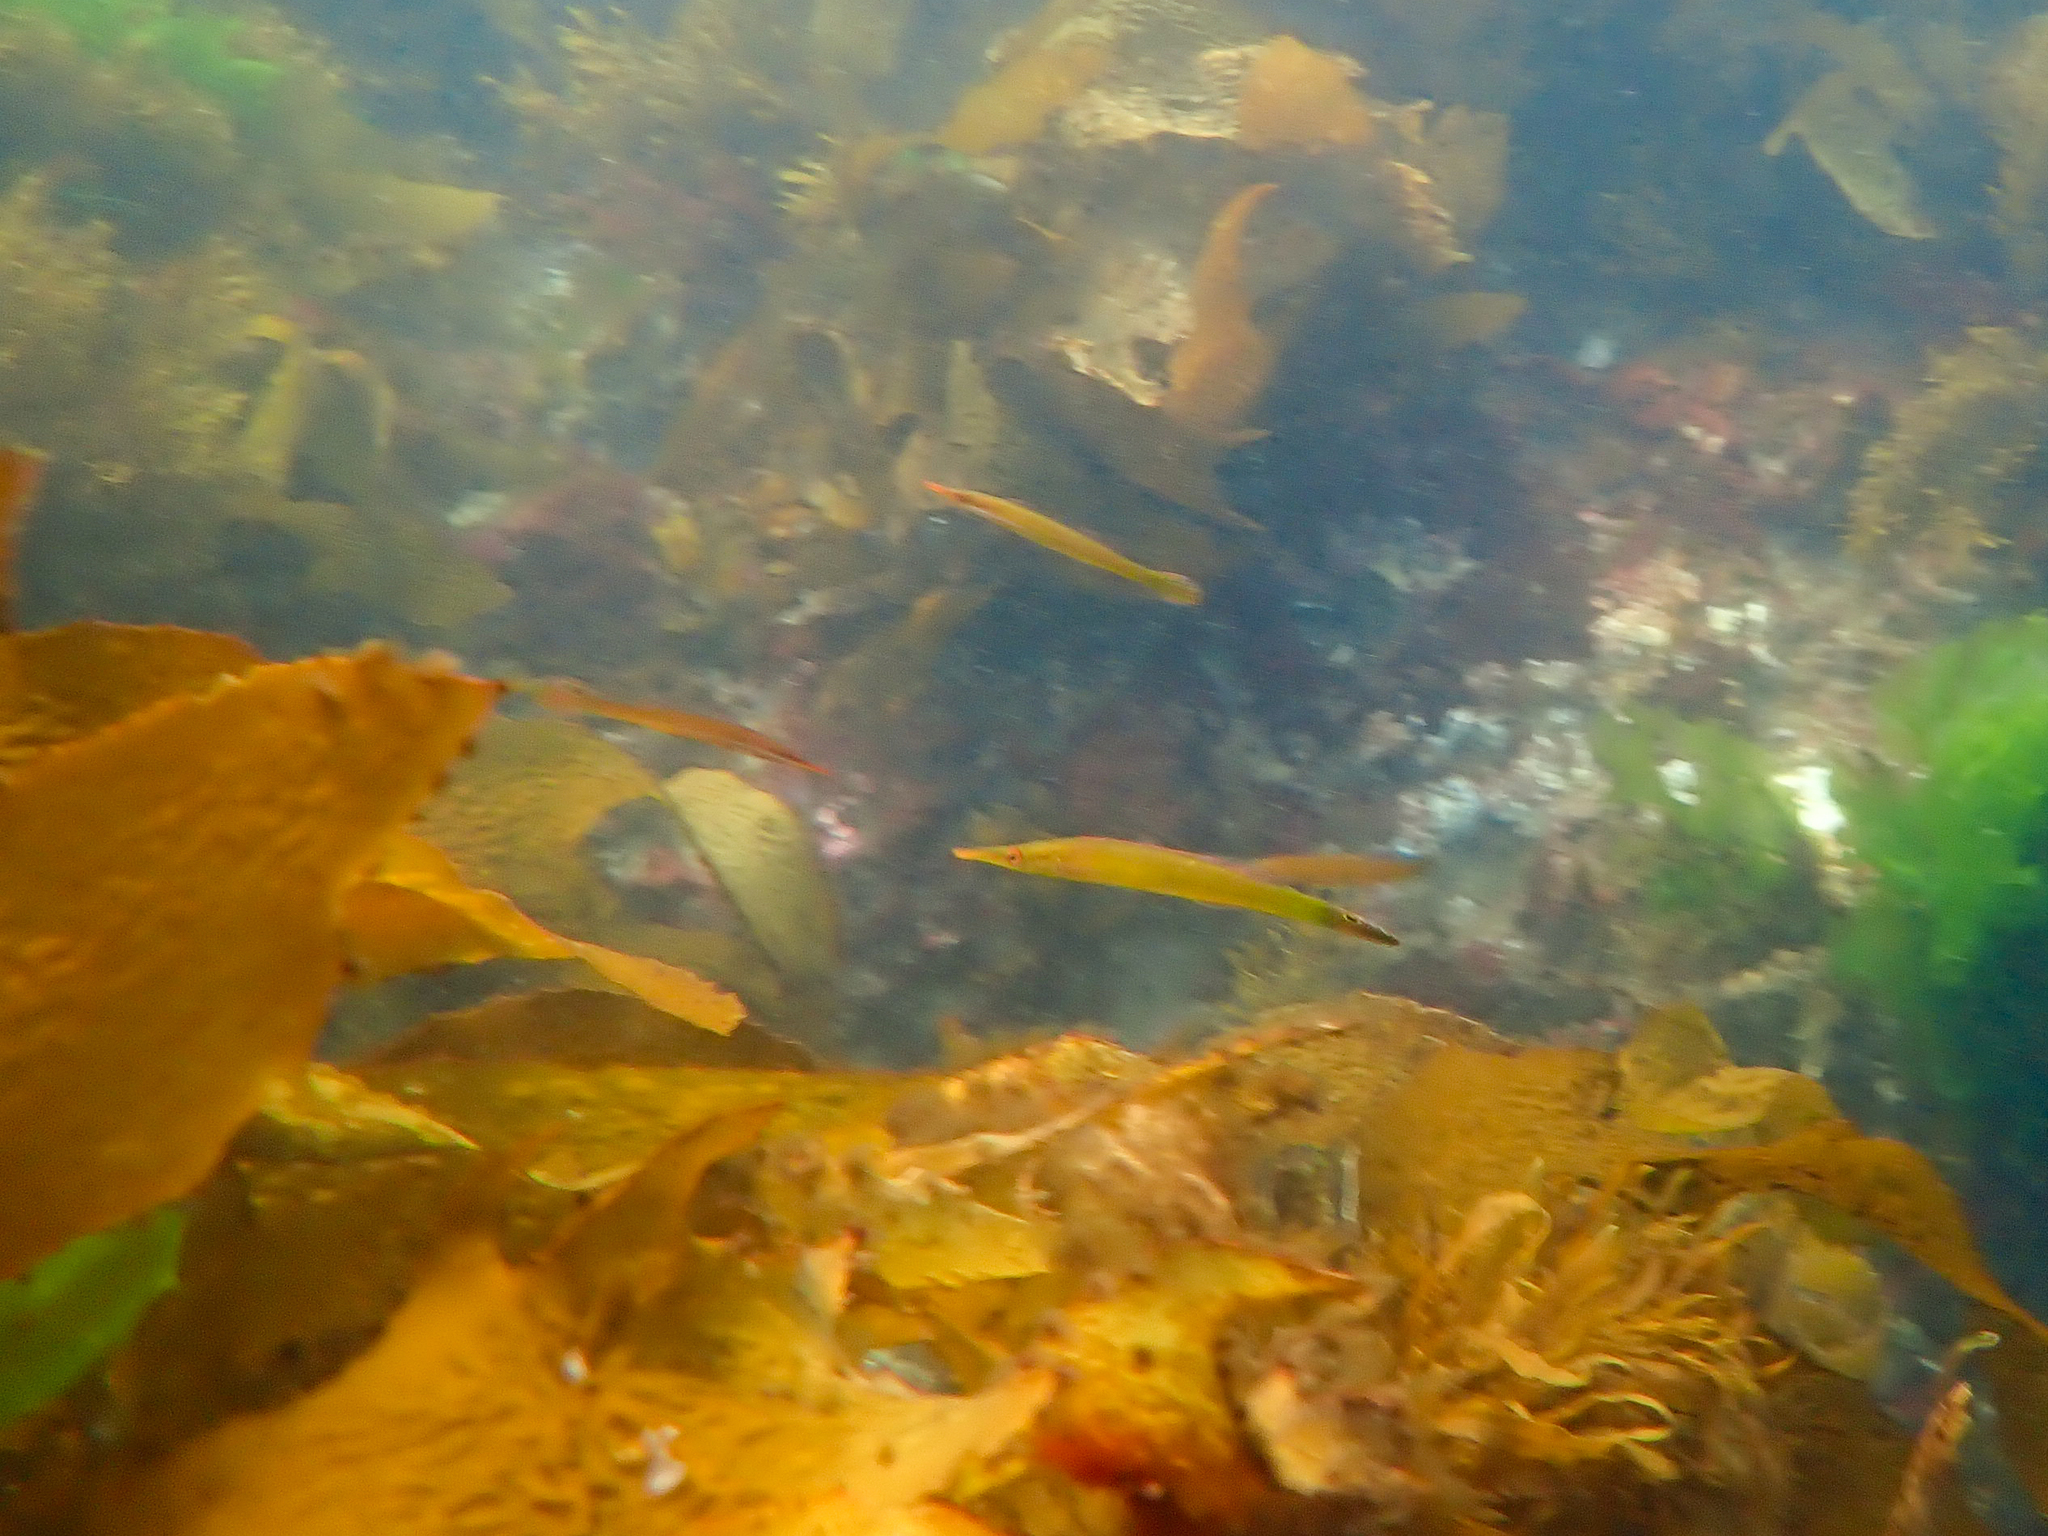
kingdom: Animalia
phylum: Chordata
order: Perciformes
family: Odacidae
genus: Siphonognathus
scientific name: Siphonognathus
